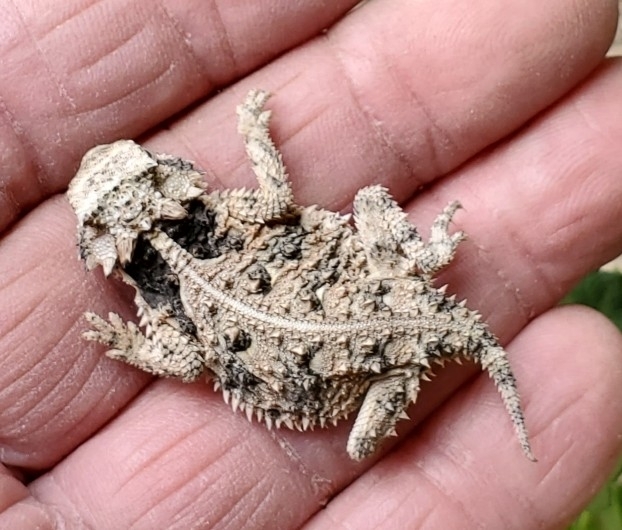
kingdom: Animalia
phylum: Chordata
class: Squamata
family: Phrynosomatidae
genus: Phrynosoma
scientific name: Phrynosoma cornutum
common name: Texas horned lizard
